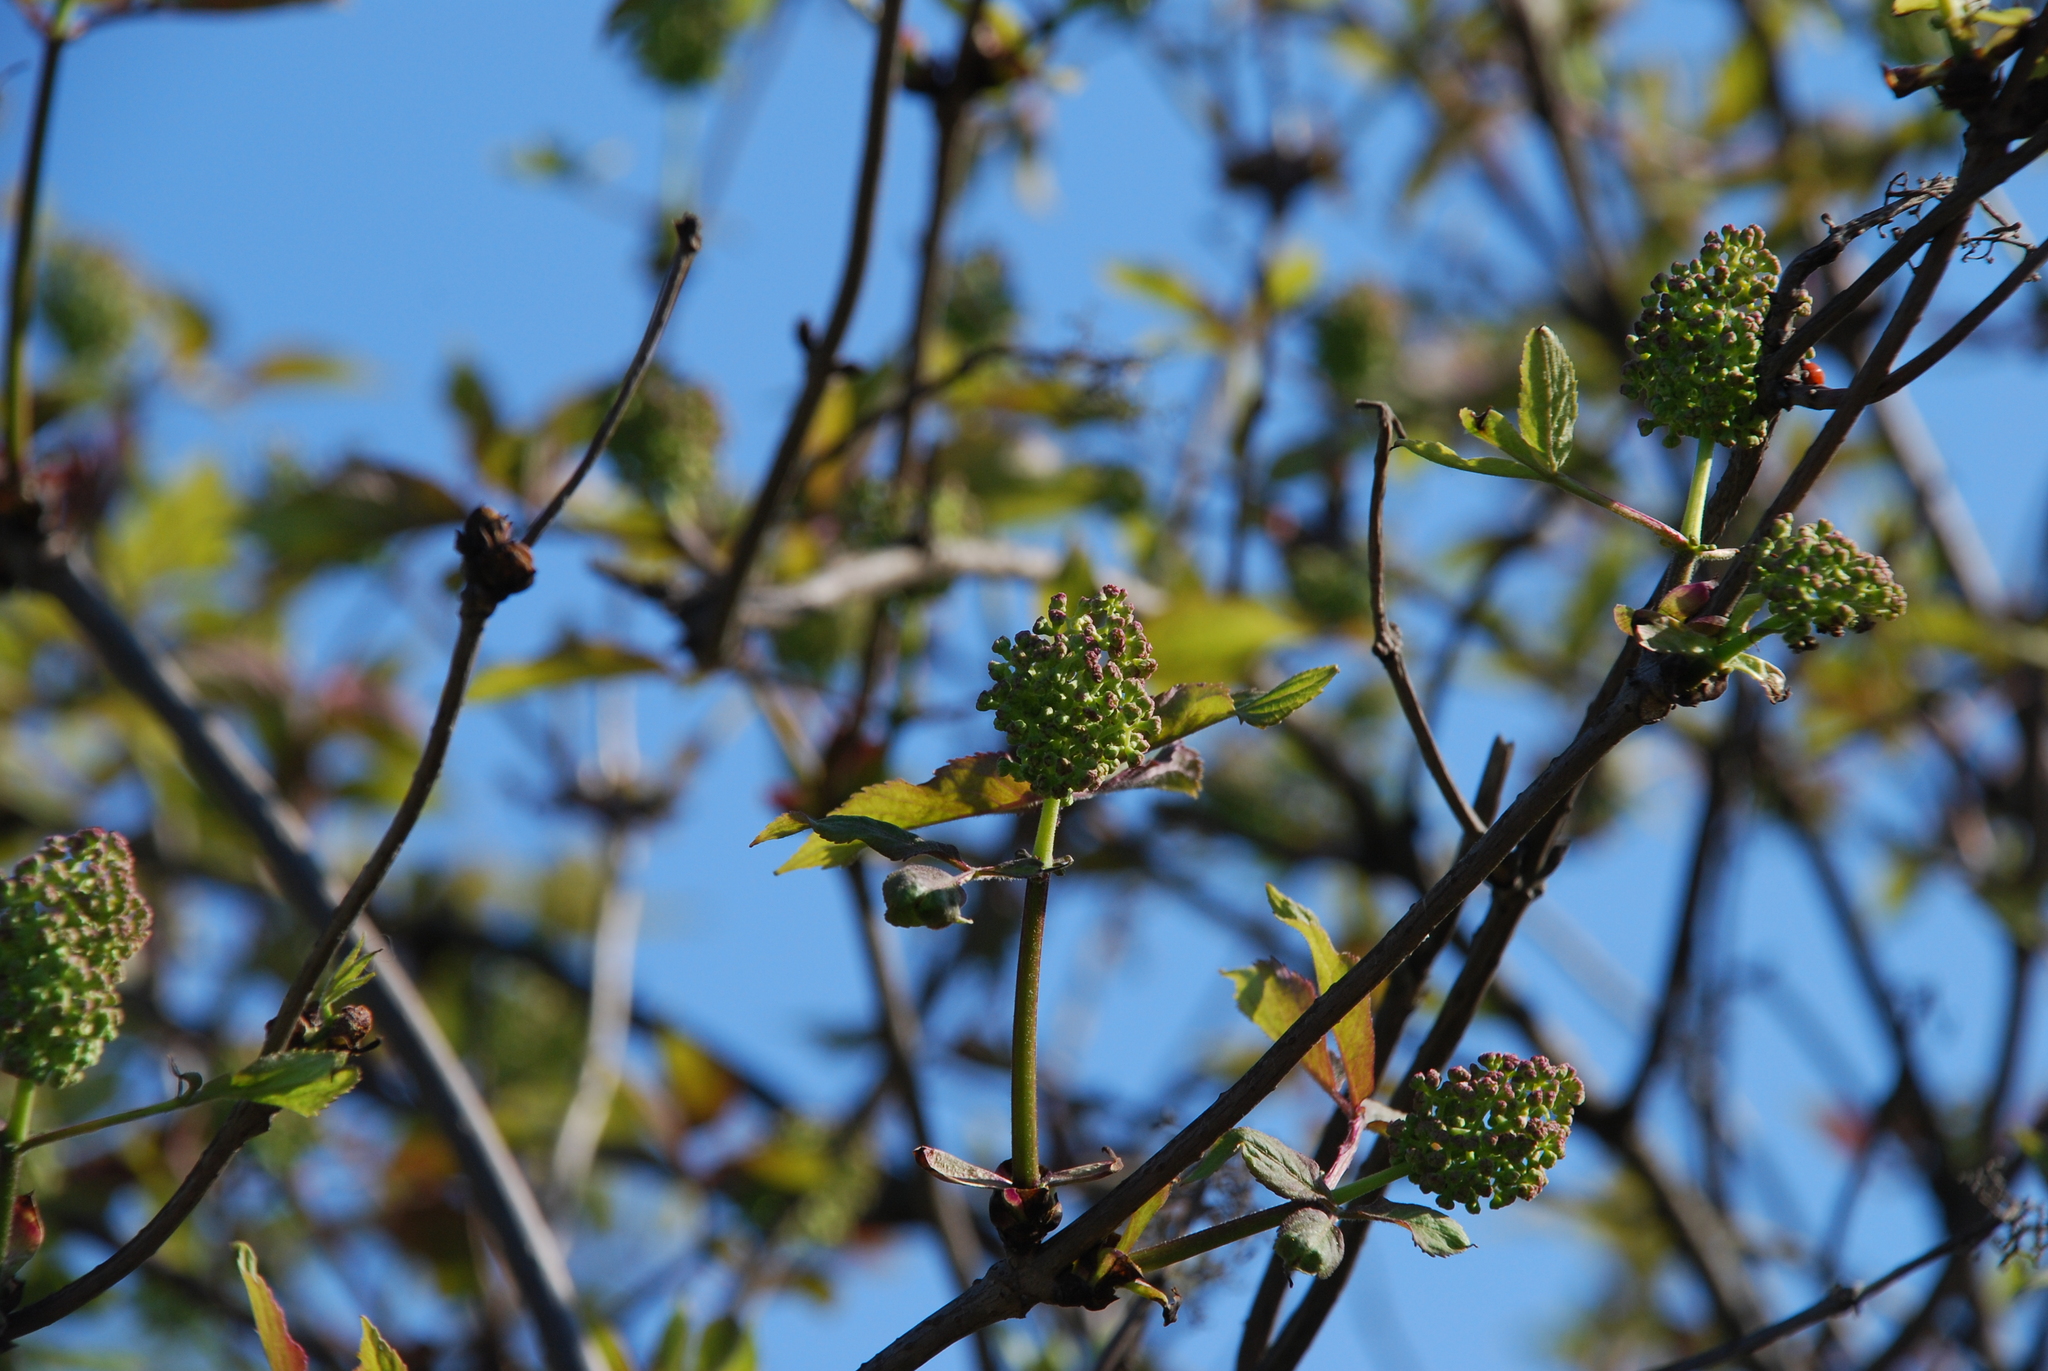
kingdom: Plantae
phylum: Tracheophyta
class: Magnoliopsida
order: Dipsacales
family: Viburnaceae
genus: Sambucus
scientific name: Sambucus racemosa
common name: Red-berried elder
